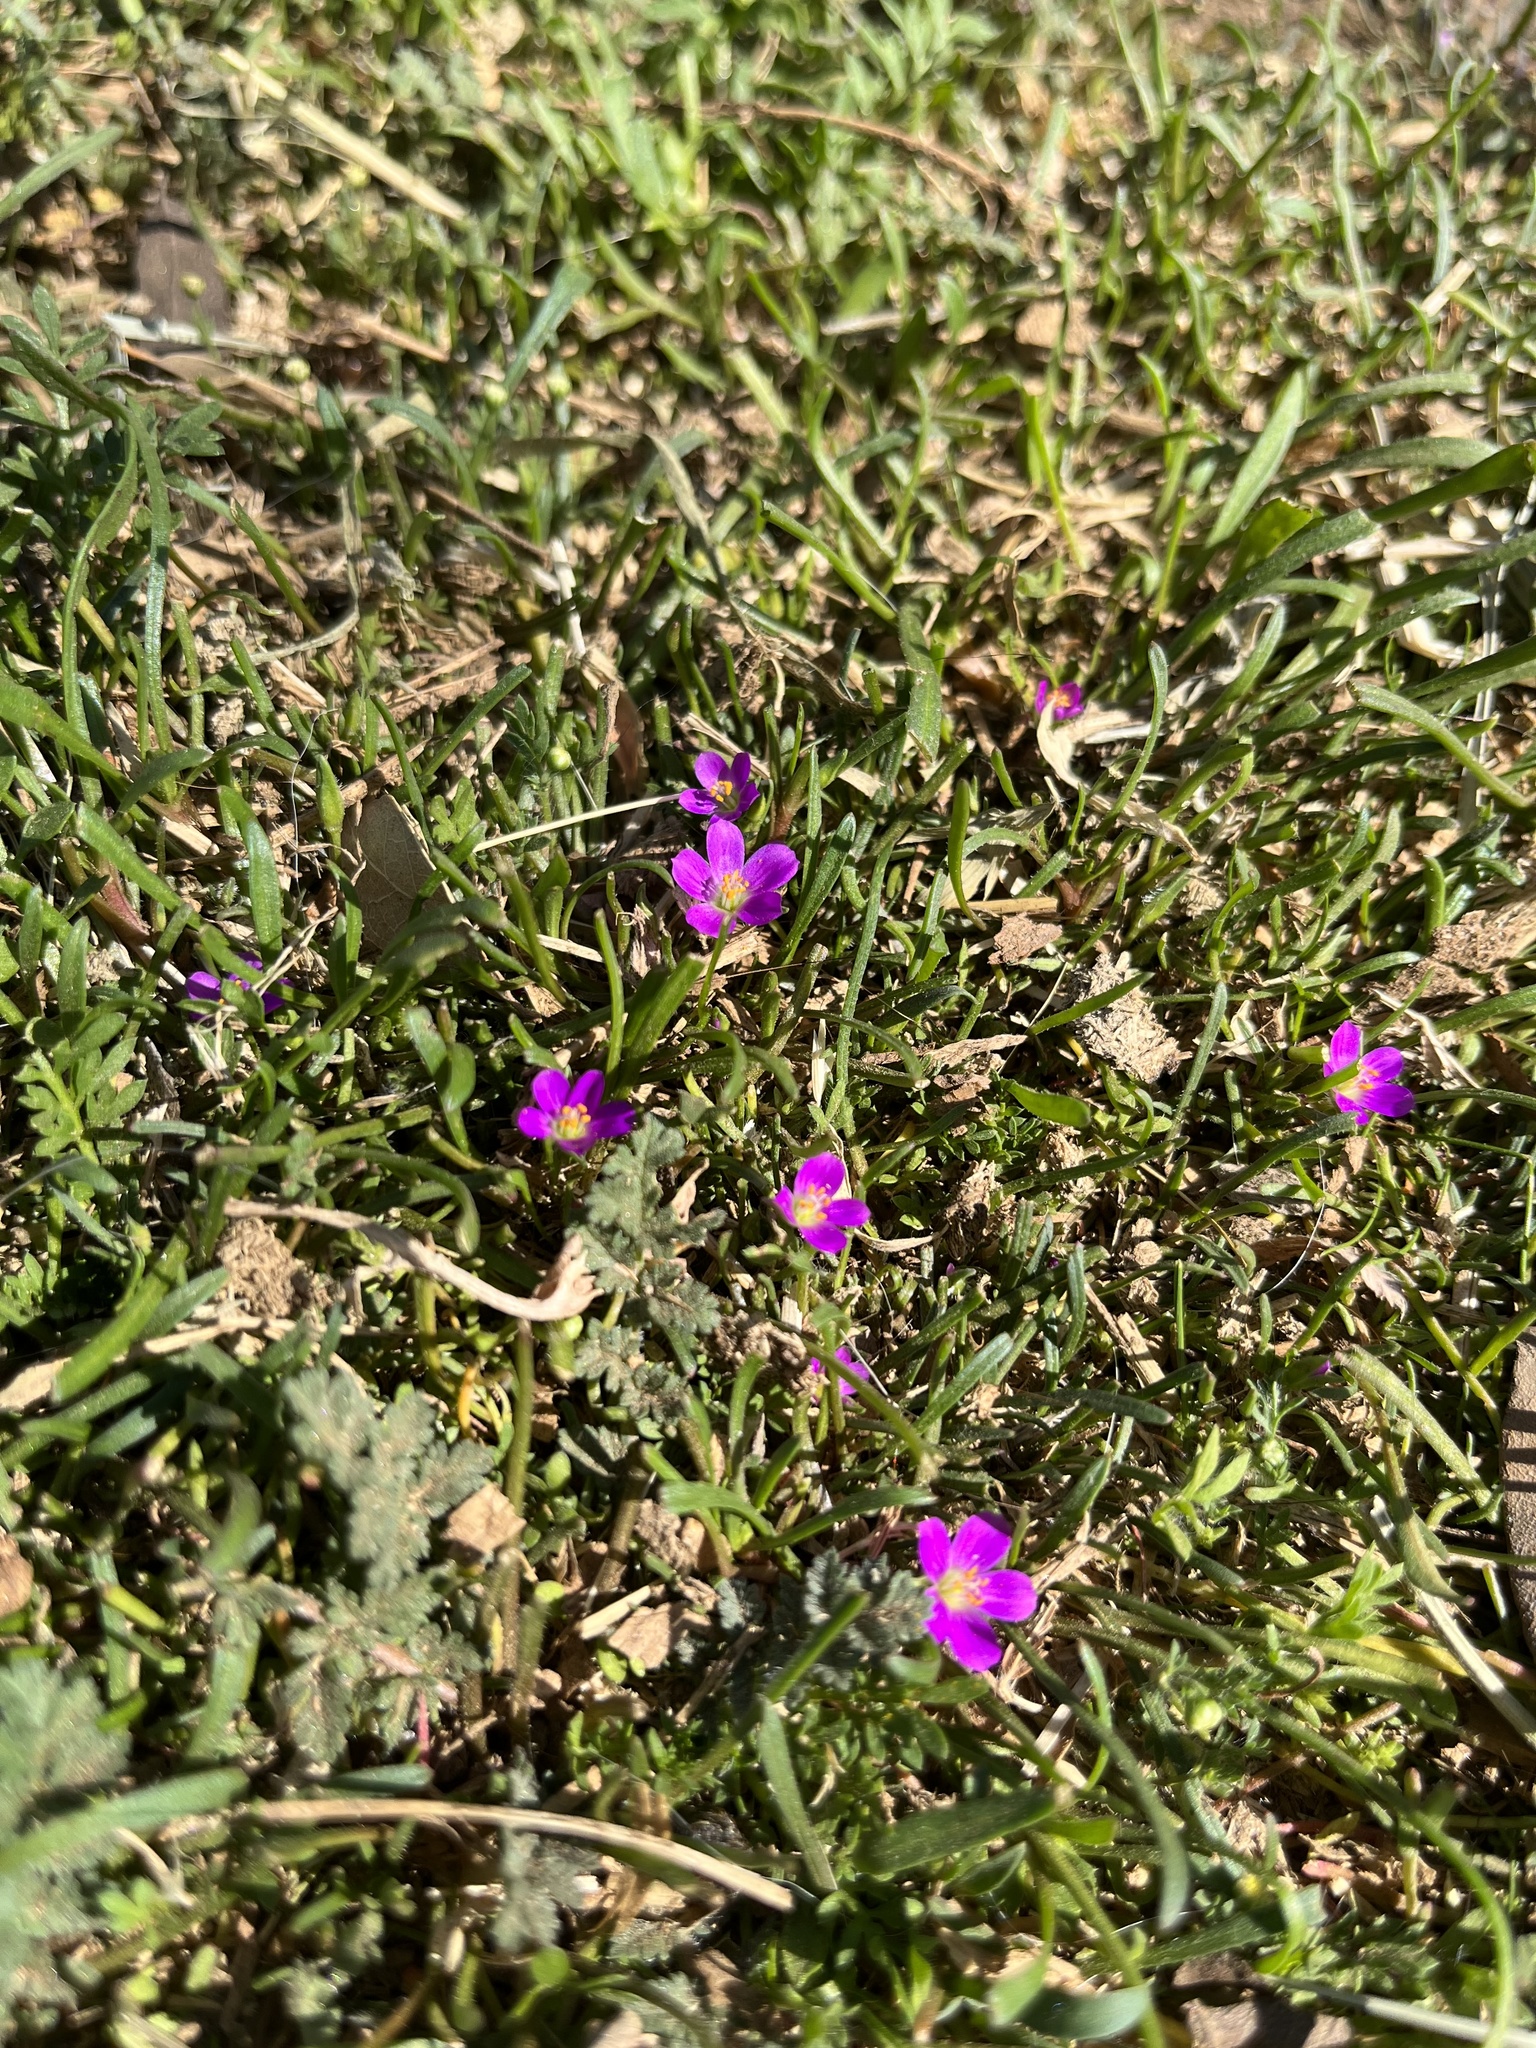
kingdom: Plantae
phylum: Tracheophyta
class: Magnoliopsida
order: Caryophyllales
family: Montiaceae
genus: Calandrinia
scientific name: Calandrinia menziesii
